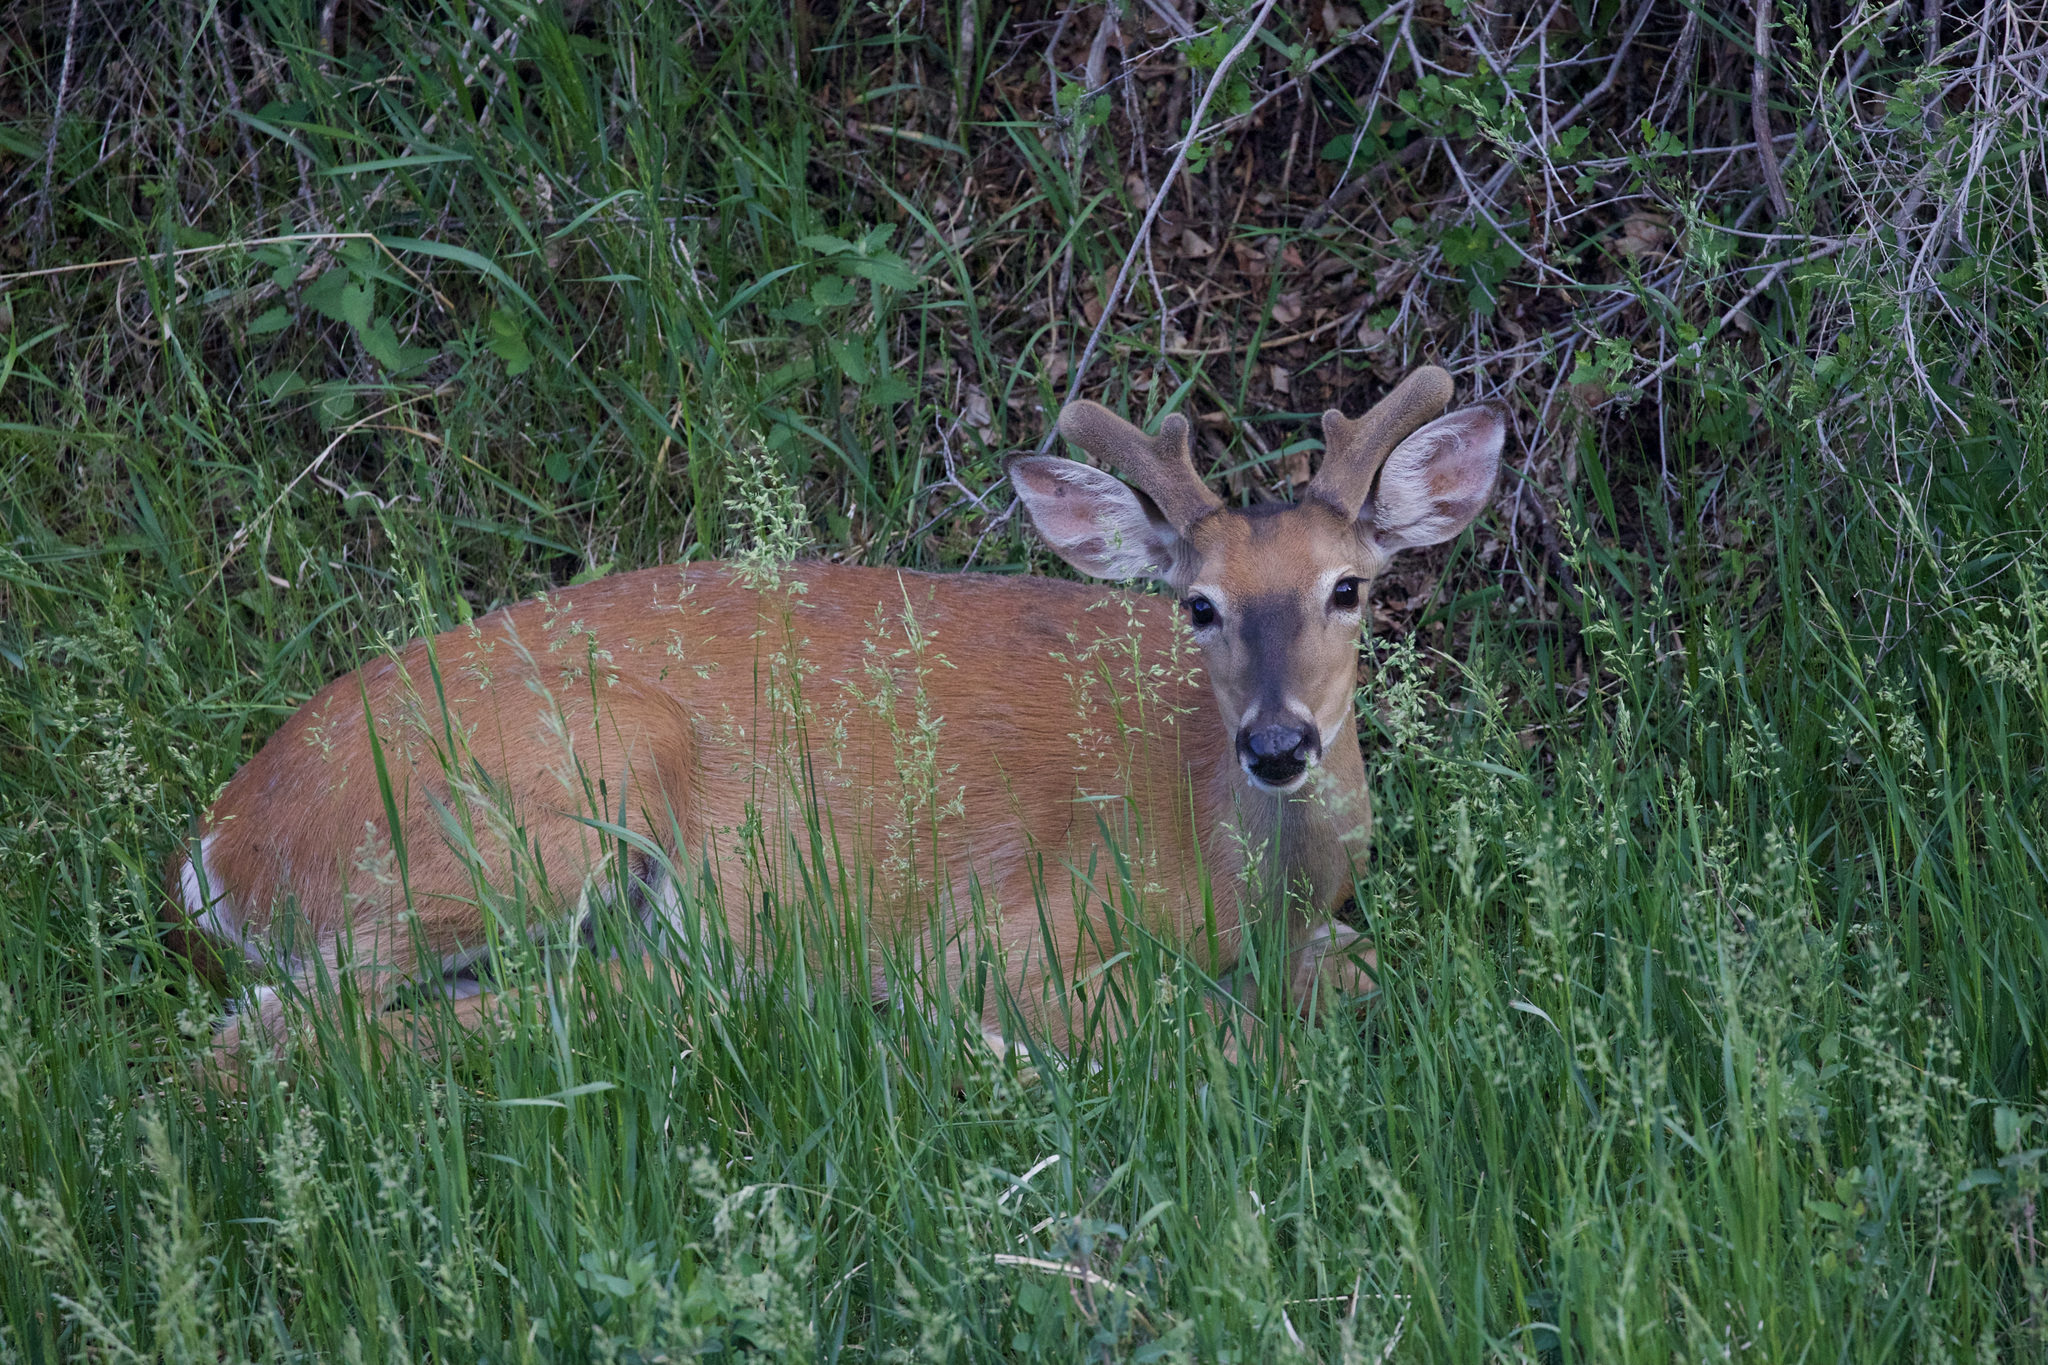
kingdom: Animalia
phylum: Chordata
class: Mammalia
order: Artiodactyla
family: Cervidae
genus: Odocoileus
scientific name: Odocoileus virginianus
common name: White-tailed deer
